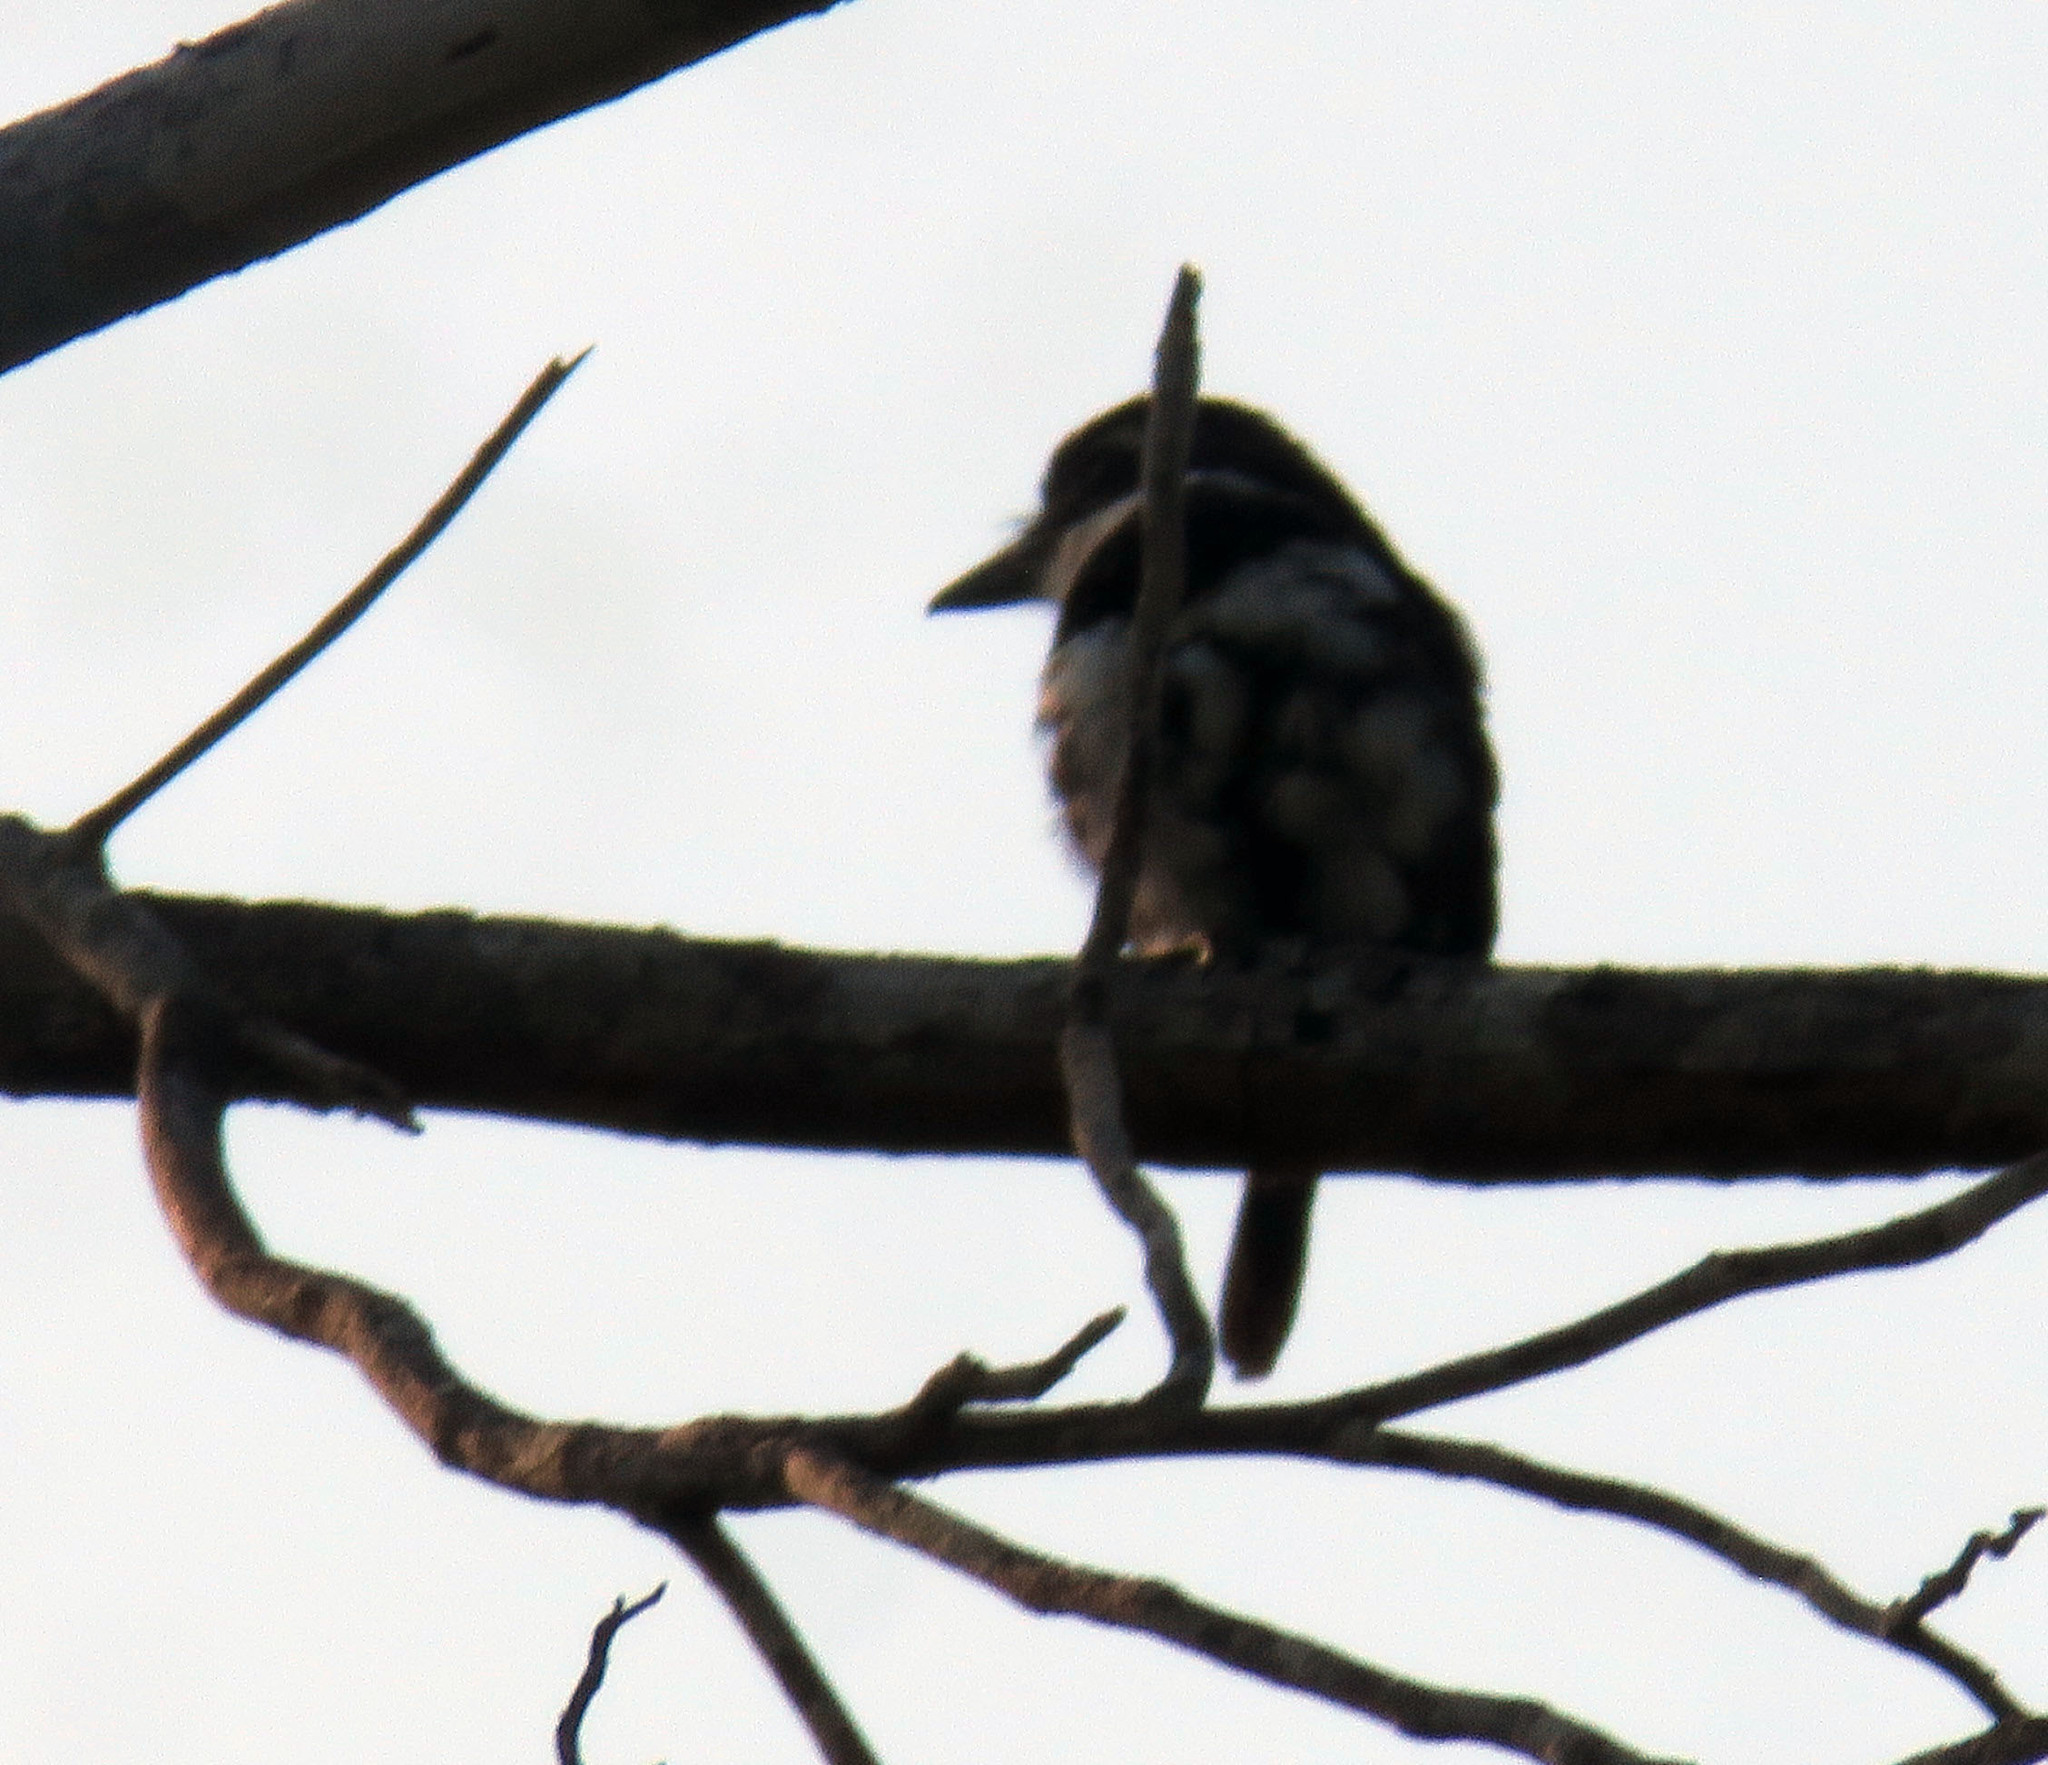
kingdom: Animalia
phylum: Chordata
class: Aves
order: Piciformes
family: Bucconidae
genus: Notharchus
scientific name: Notharchus tectus
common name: Pied puffbird
